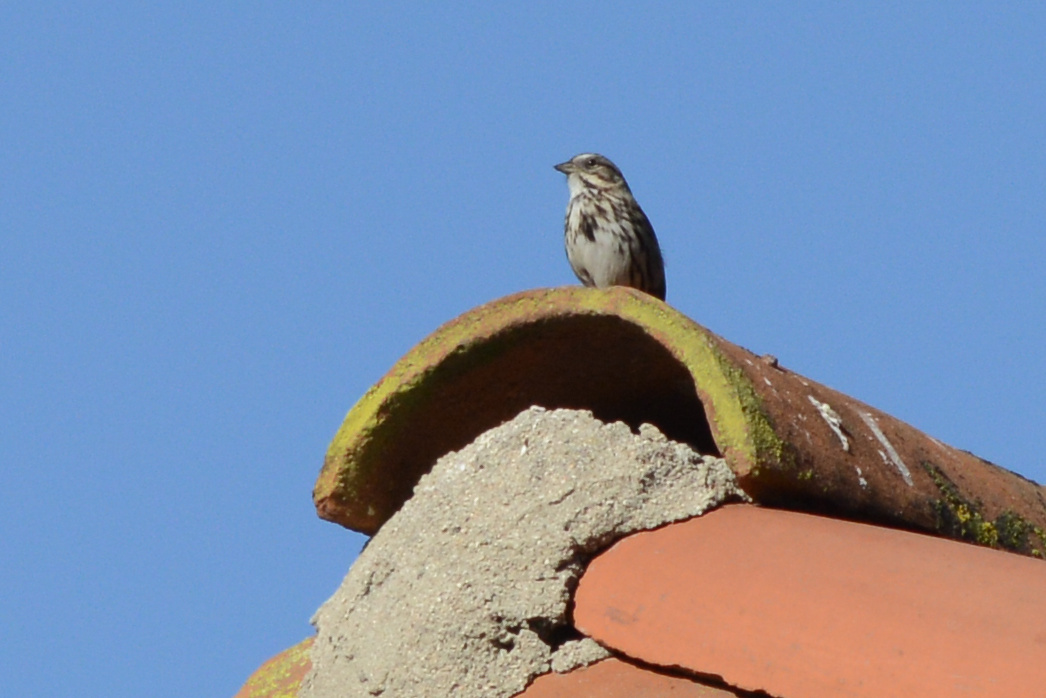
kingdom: Animalia
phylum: Chordata
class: Aves
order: Passeriformes
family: Passerellidae
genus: Melospiza
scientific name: Melospiza melodia
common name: Song sparrow
